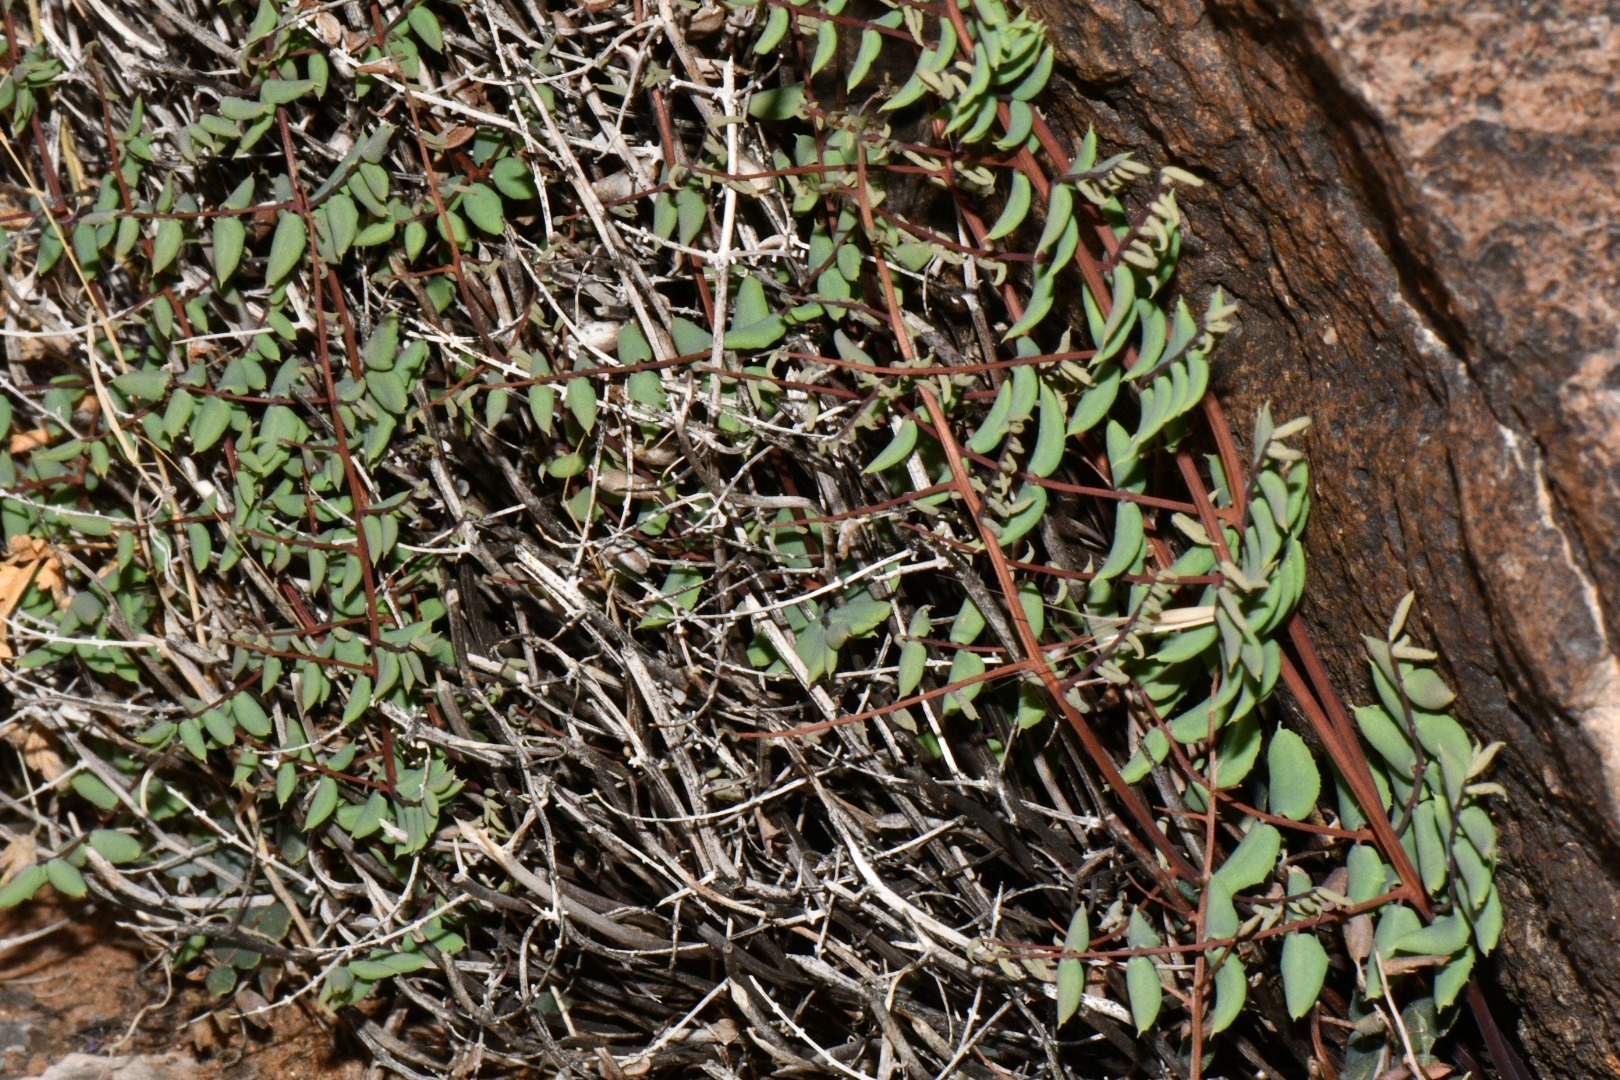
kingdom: Plantae
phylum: Tracheophyta
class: Polypodiopsida
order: Polypodiales
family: Pteridaceae
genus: Pellaea
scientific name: Pellaea truncata
